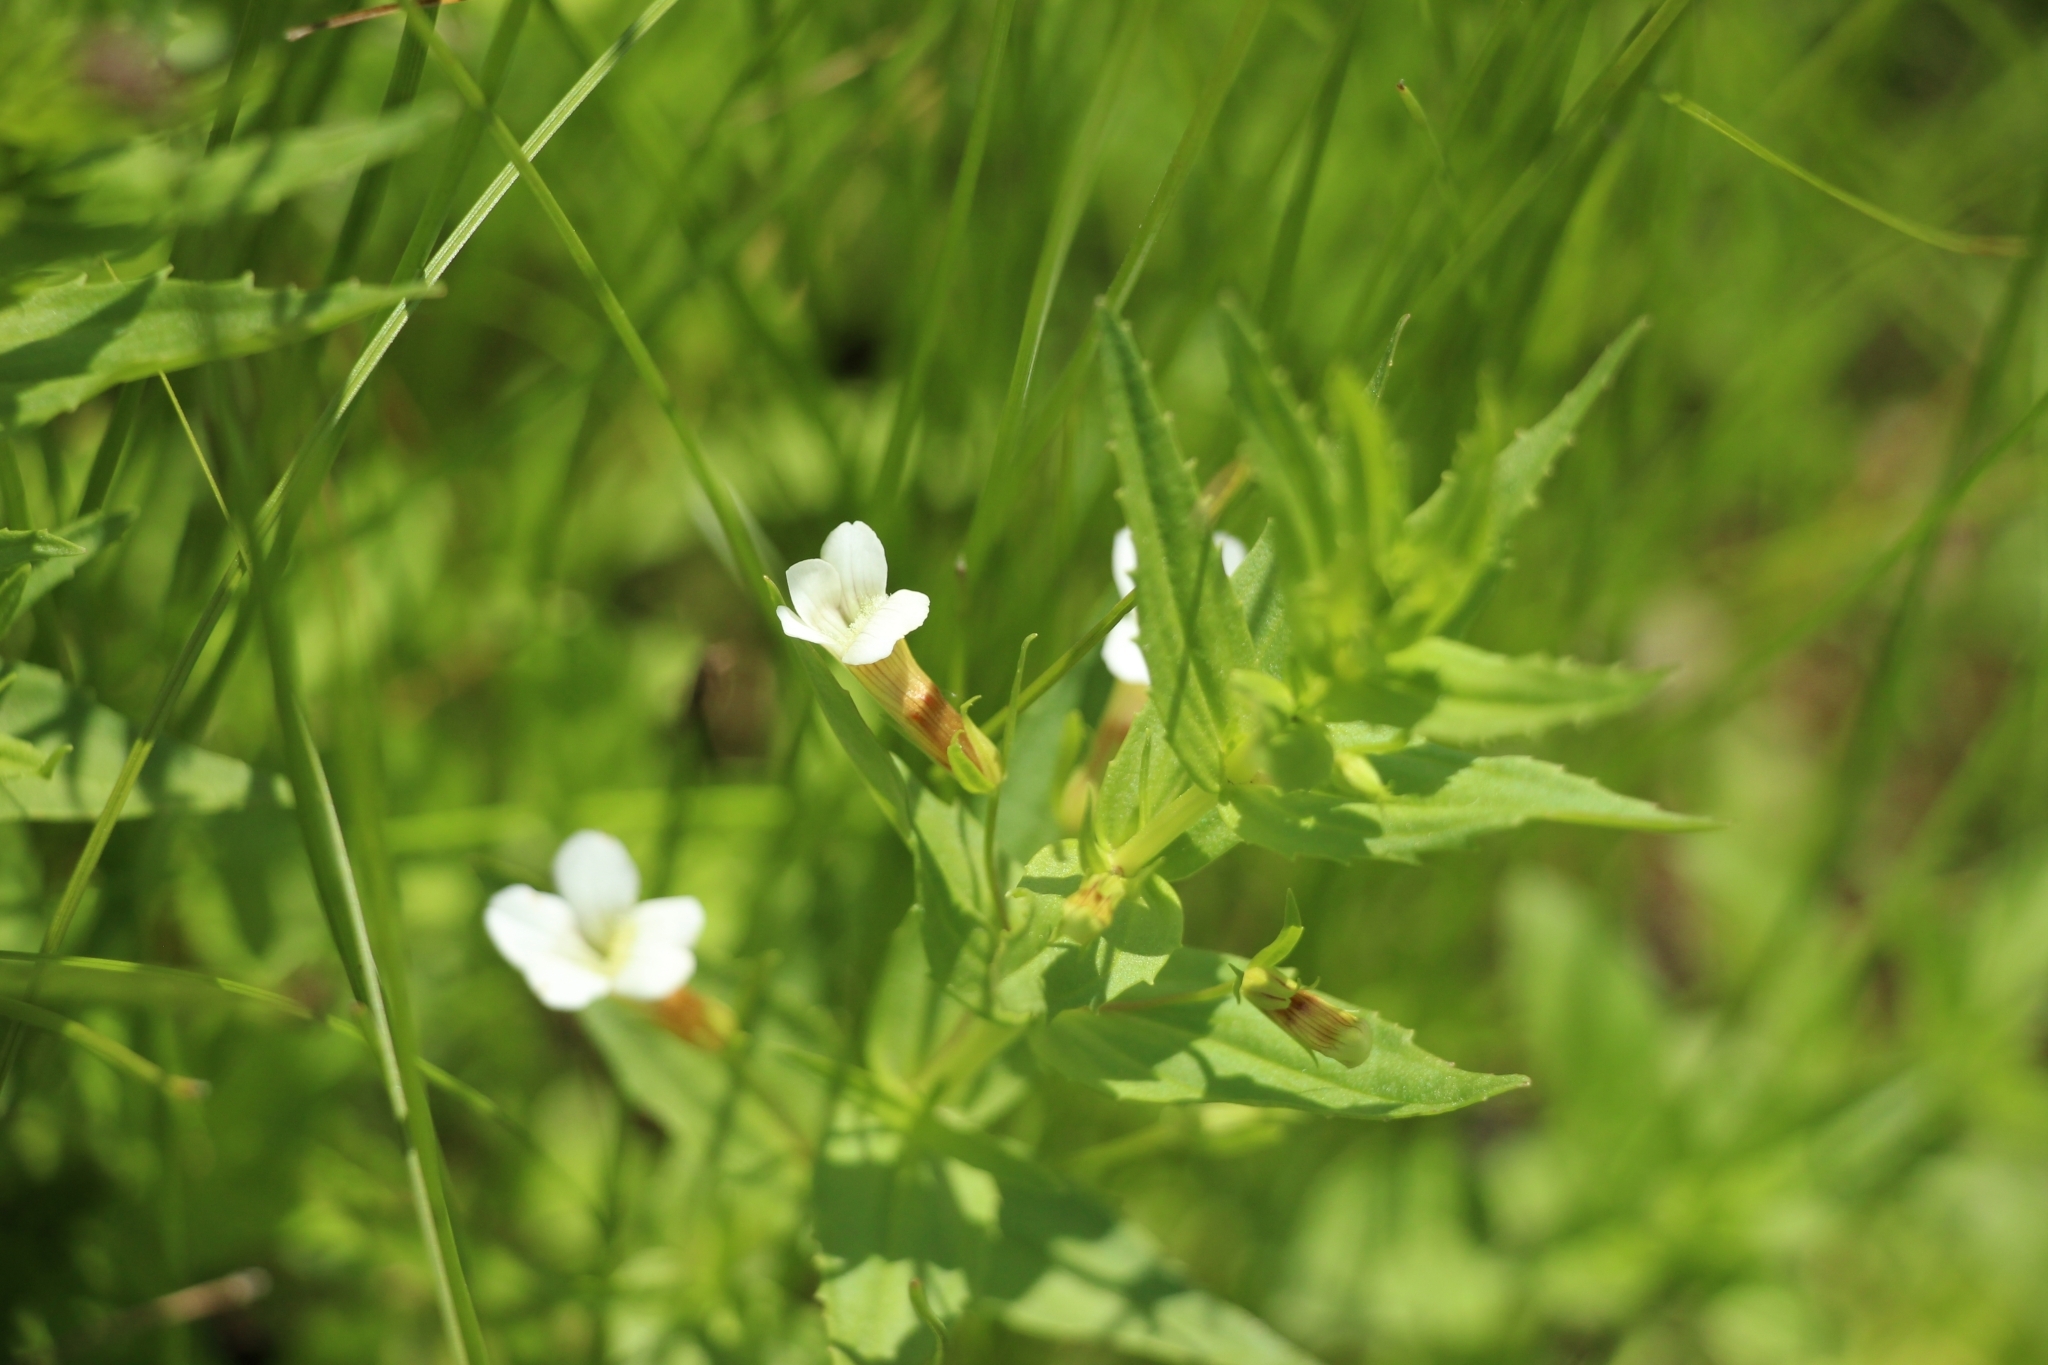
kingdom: Plantae
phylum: Tracheophyta
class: Magnoliopsida
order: Lamiales
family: Plantaginaceae
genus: Gratiola
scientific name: Gratiola officinalis
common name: Gratiola
